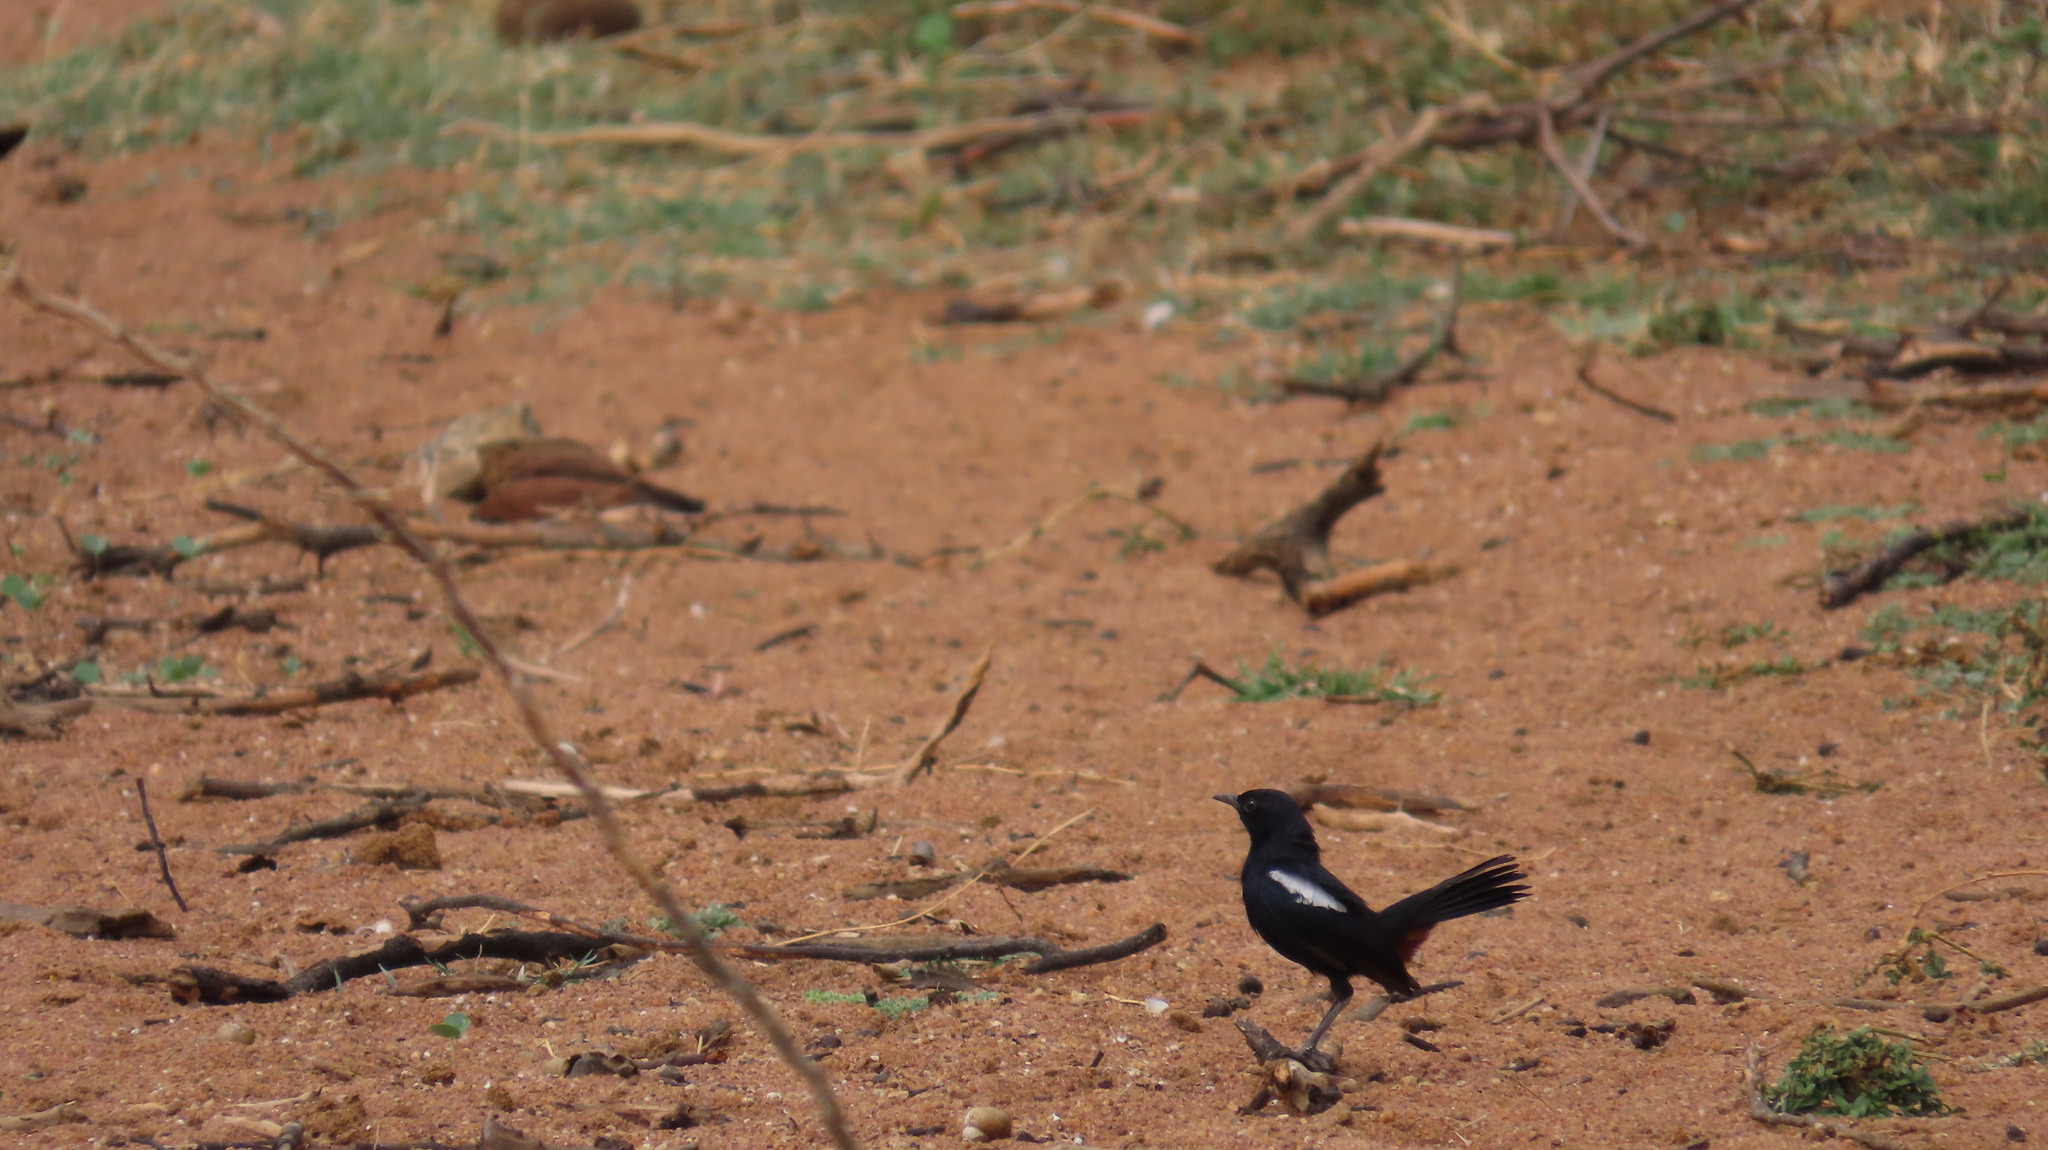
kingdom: Animalia
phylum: Chordata
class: Aves
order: Passeriformes
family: Muscicapidae
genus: Saxicoloides
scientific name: Saxicoloides fulicatus
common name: Indian robin
